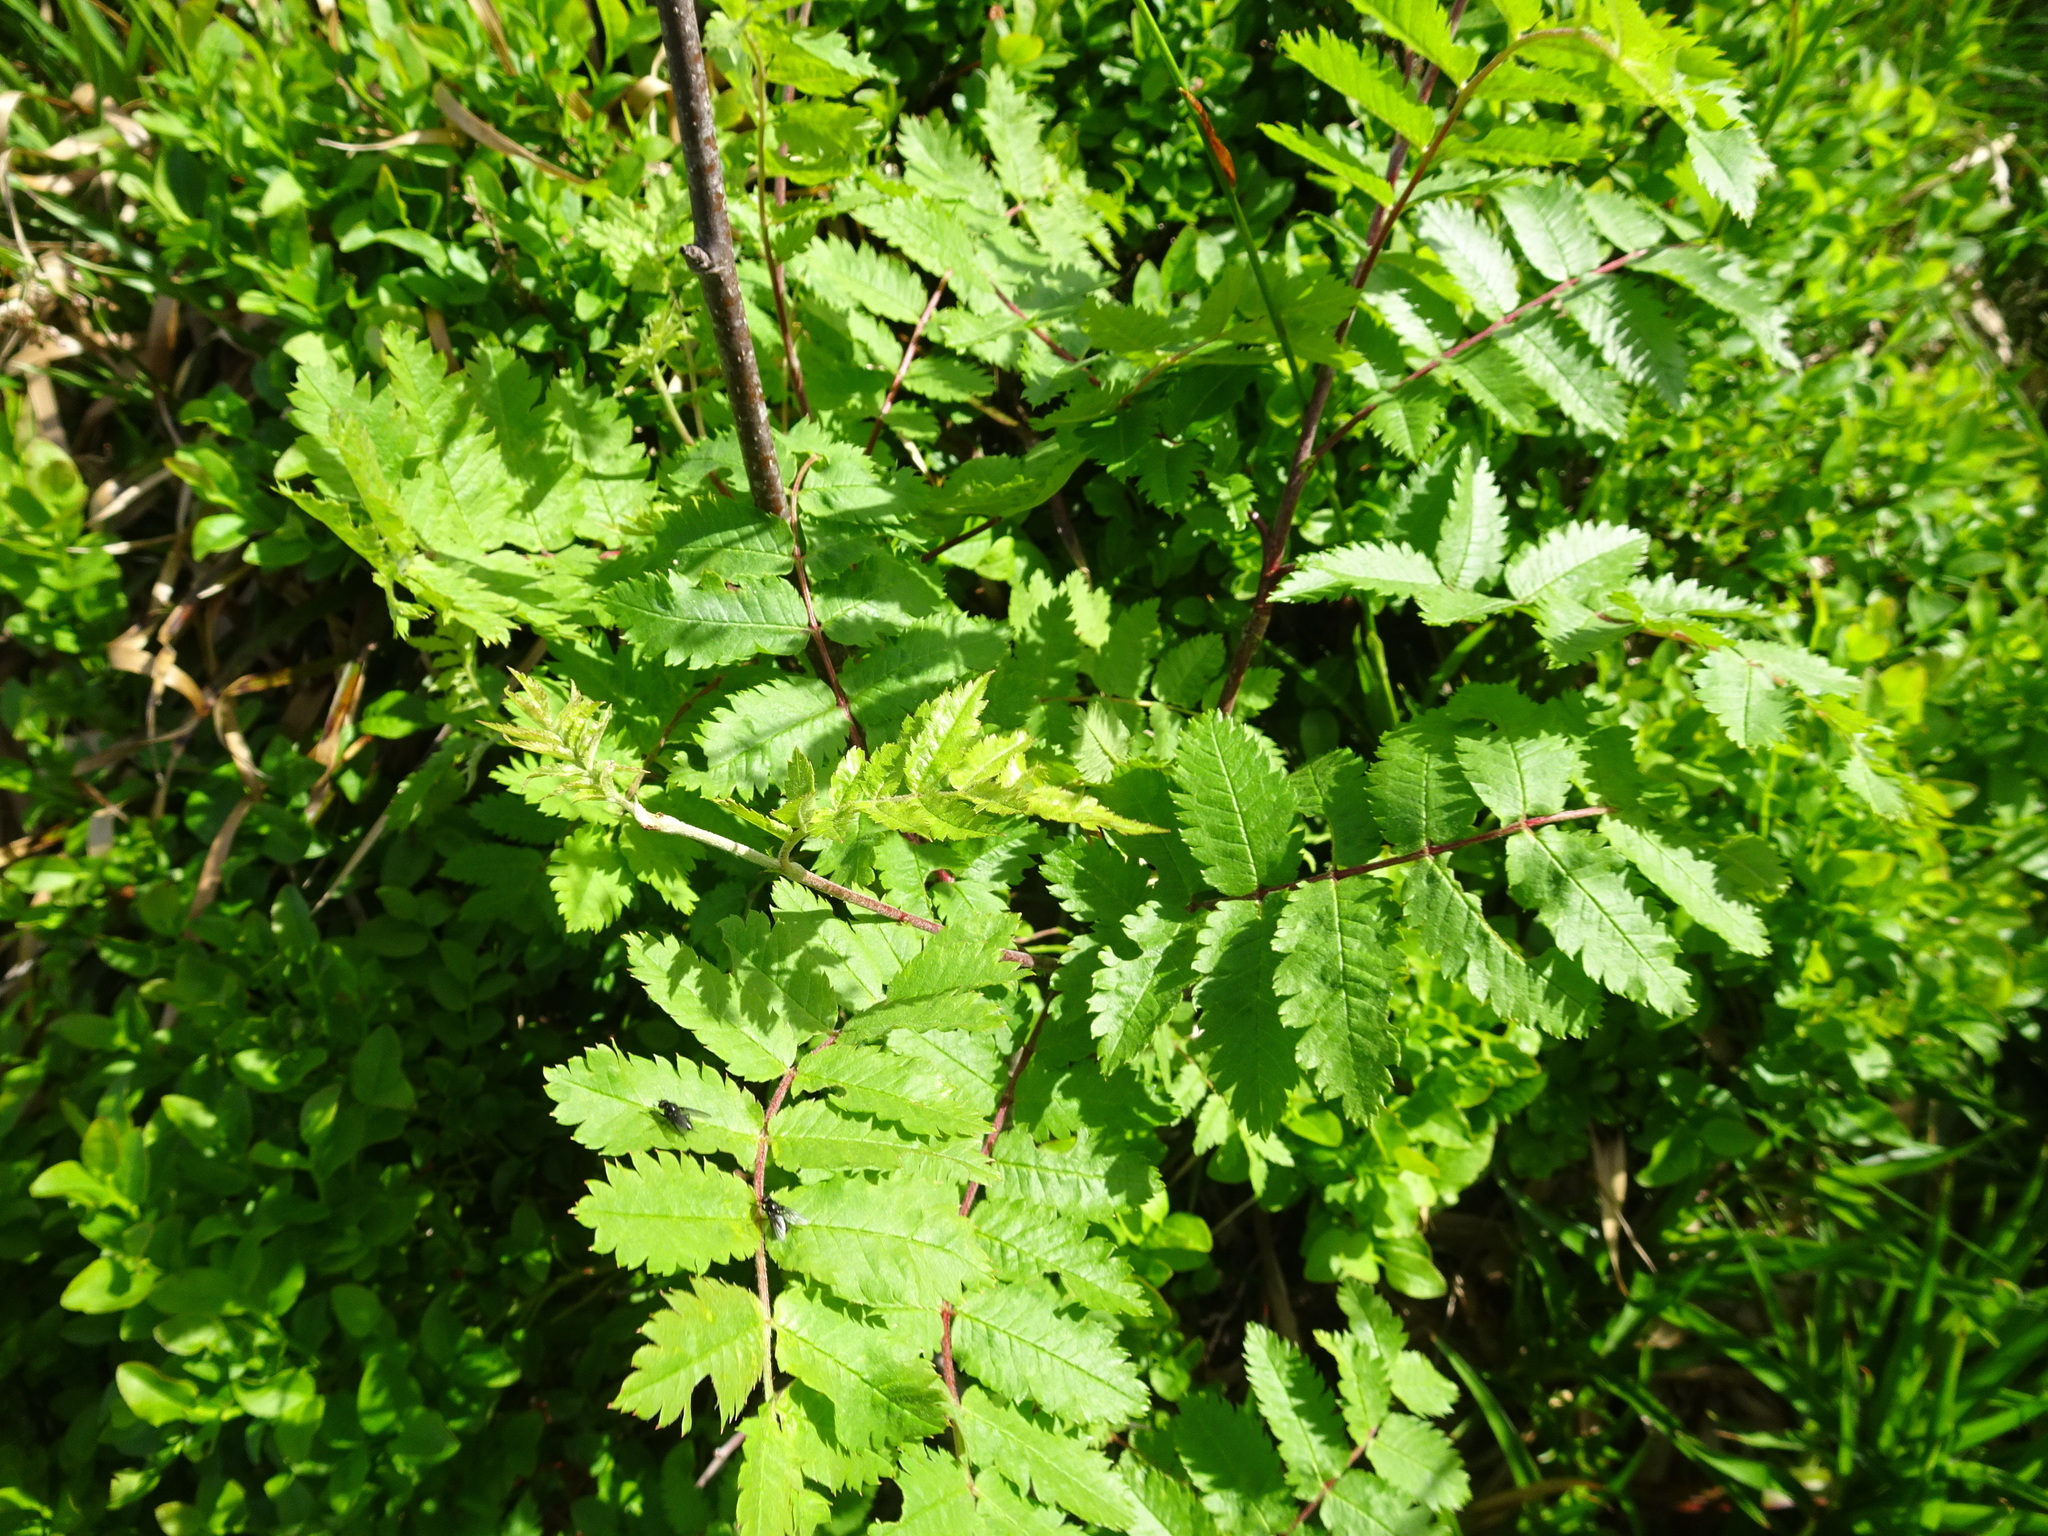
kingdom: Plantae
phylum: Tracheophyta
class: Magnoliopsida
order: Rosales
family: Rosaceae
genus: Sorbus
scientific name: Sorbus aucuparia
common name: Rowan
